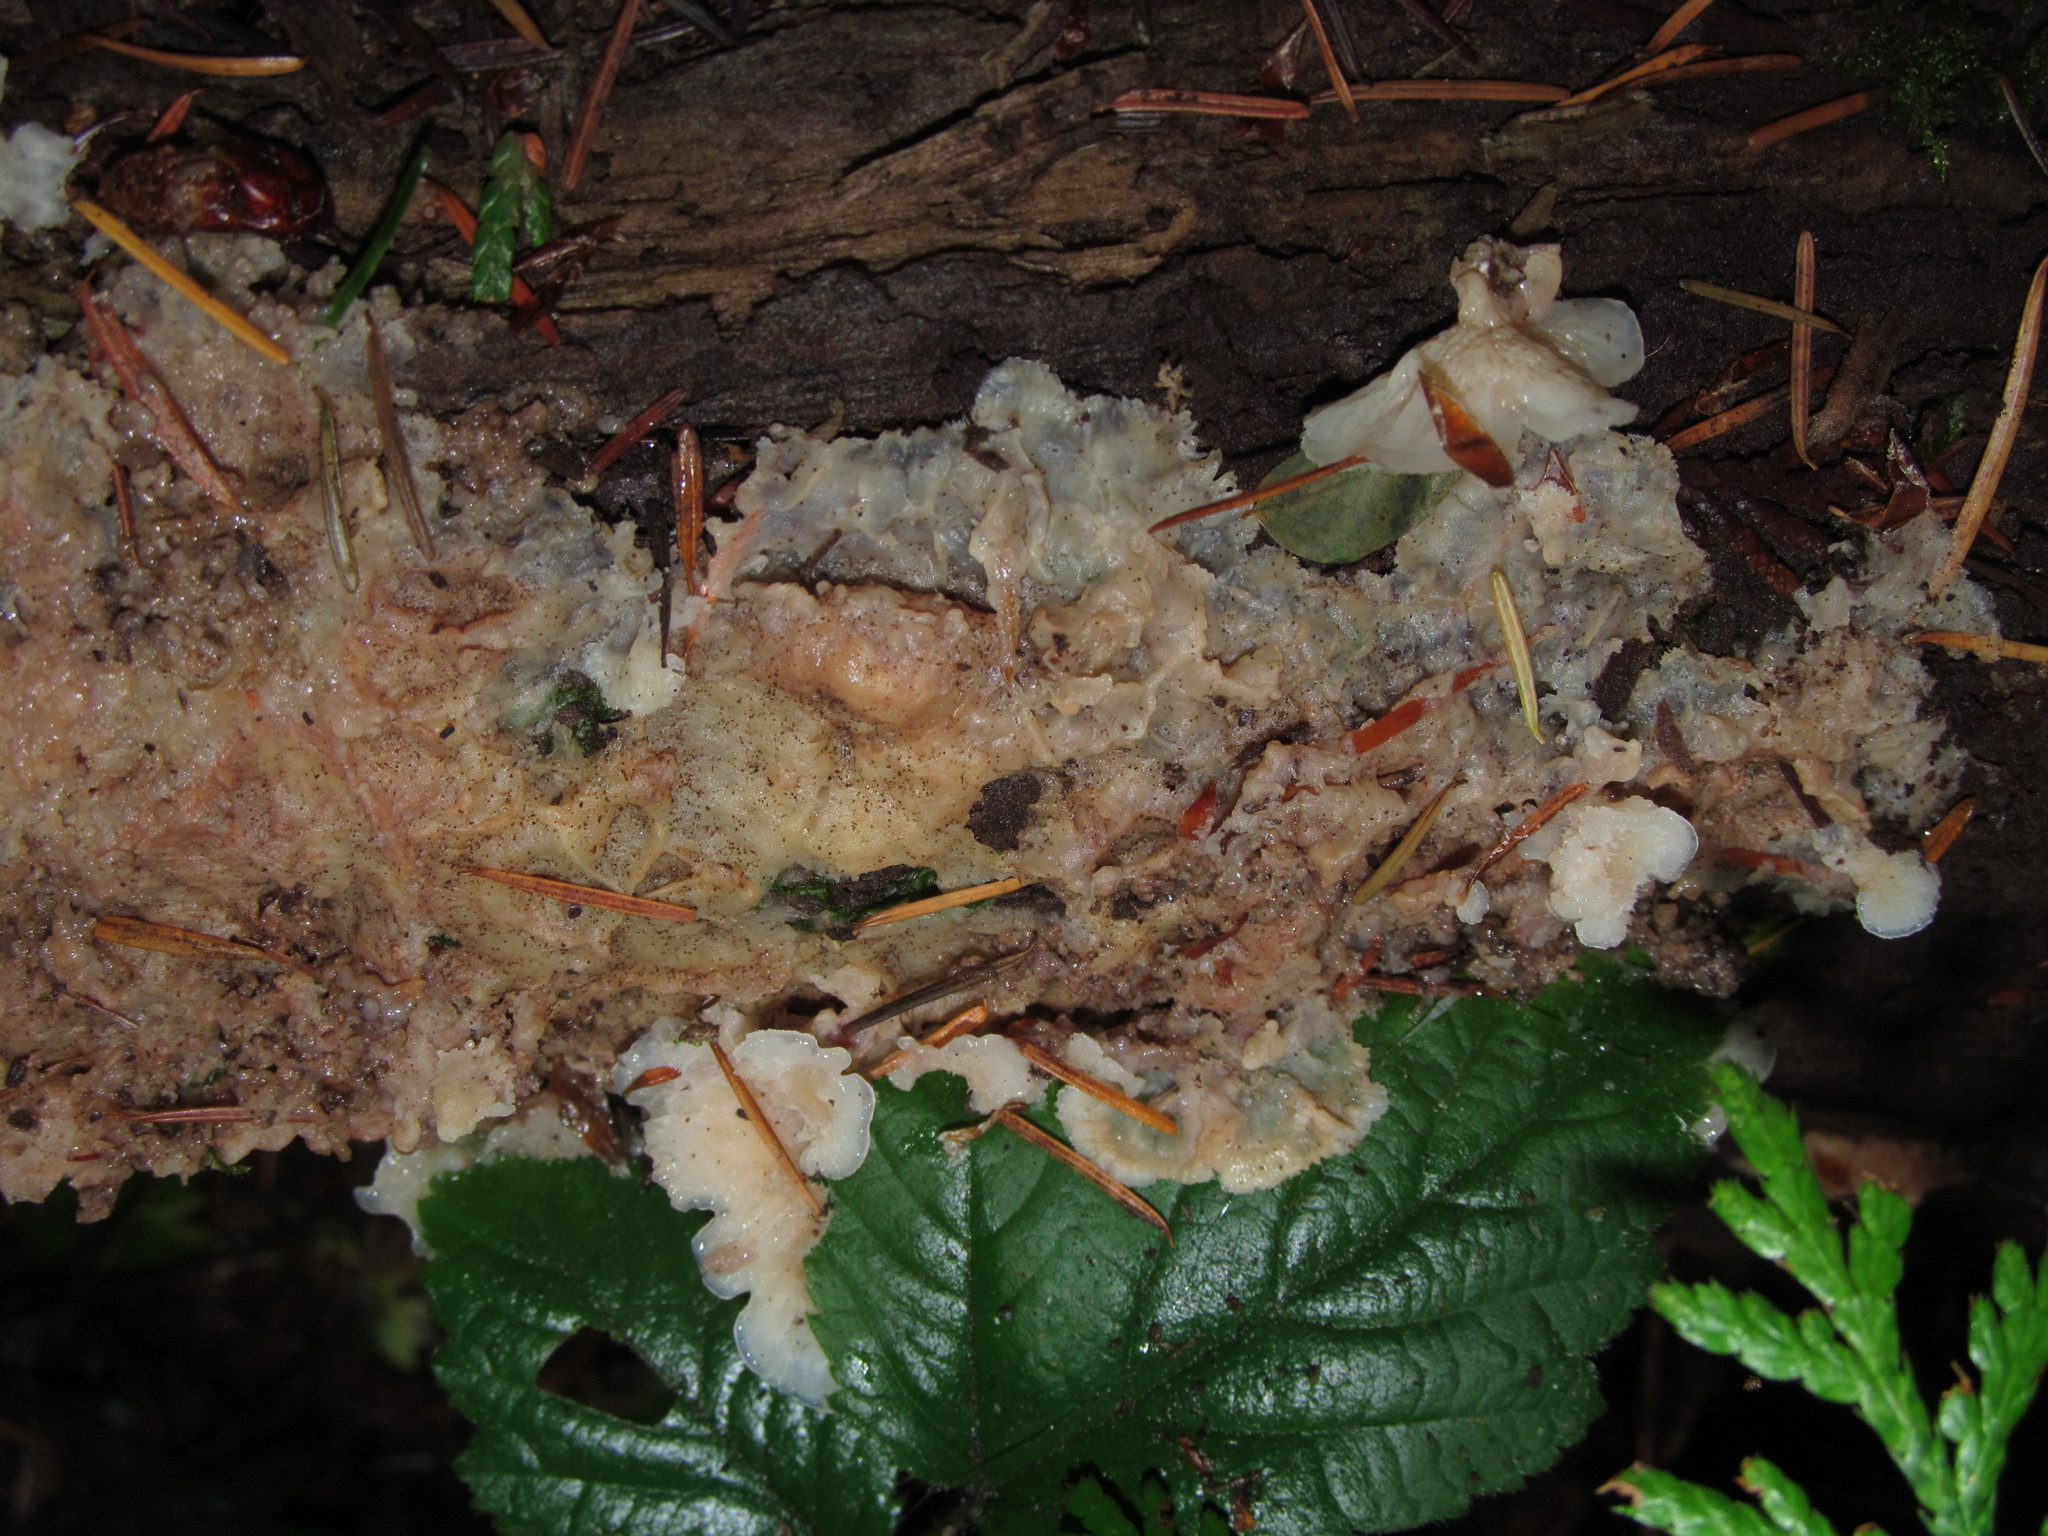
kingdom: Fungi
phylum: Basidiomycota
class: Agaricomycetes
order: Polyporales
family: Meruliaceae
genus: Phlebia
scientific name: Phlebia tremellosa
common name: Jelly rot
